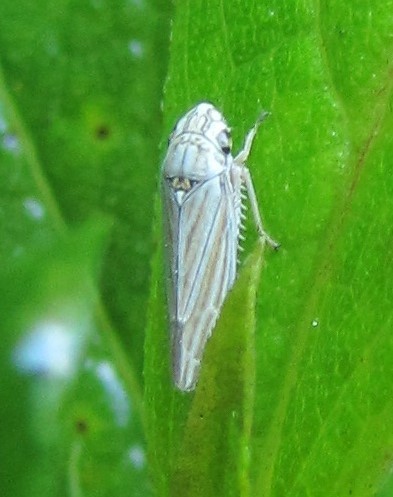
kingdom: Animalia
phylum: Arthropoda
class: Insecta
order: Hemiptera
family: Cicadellidae
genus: Neokolla
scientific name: Neokolla hieroglyphica
